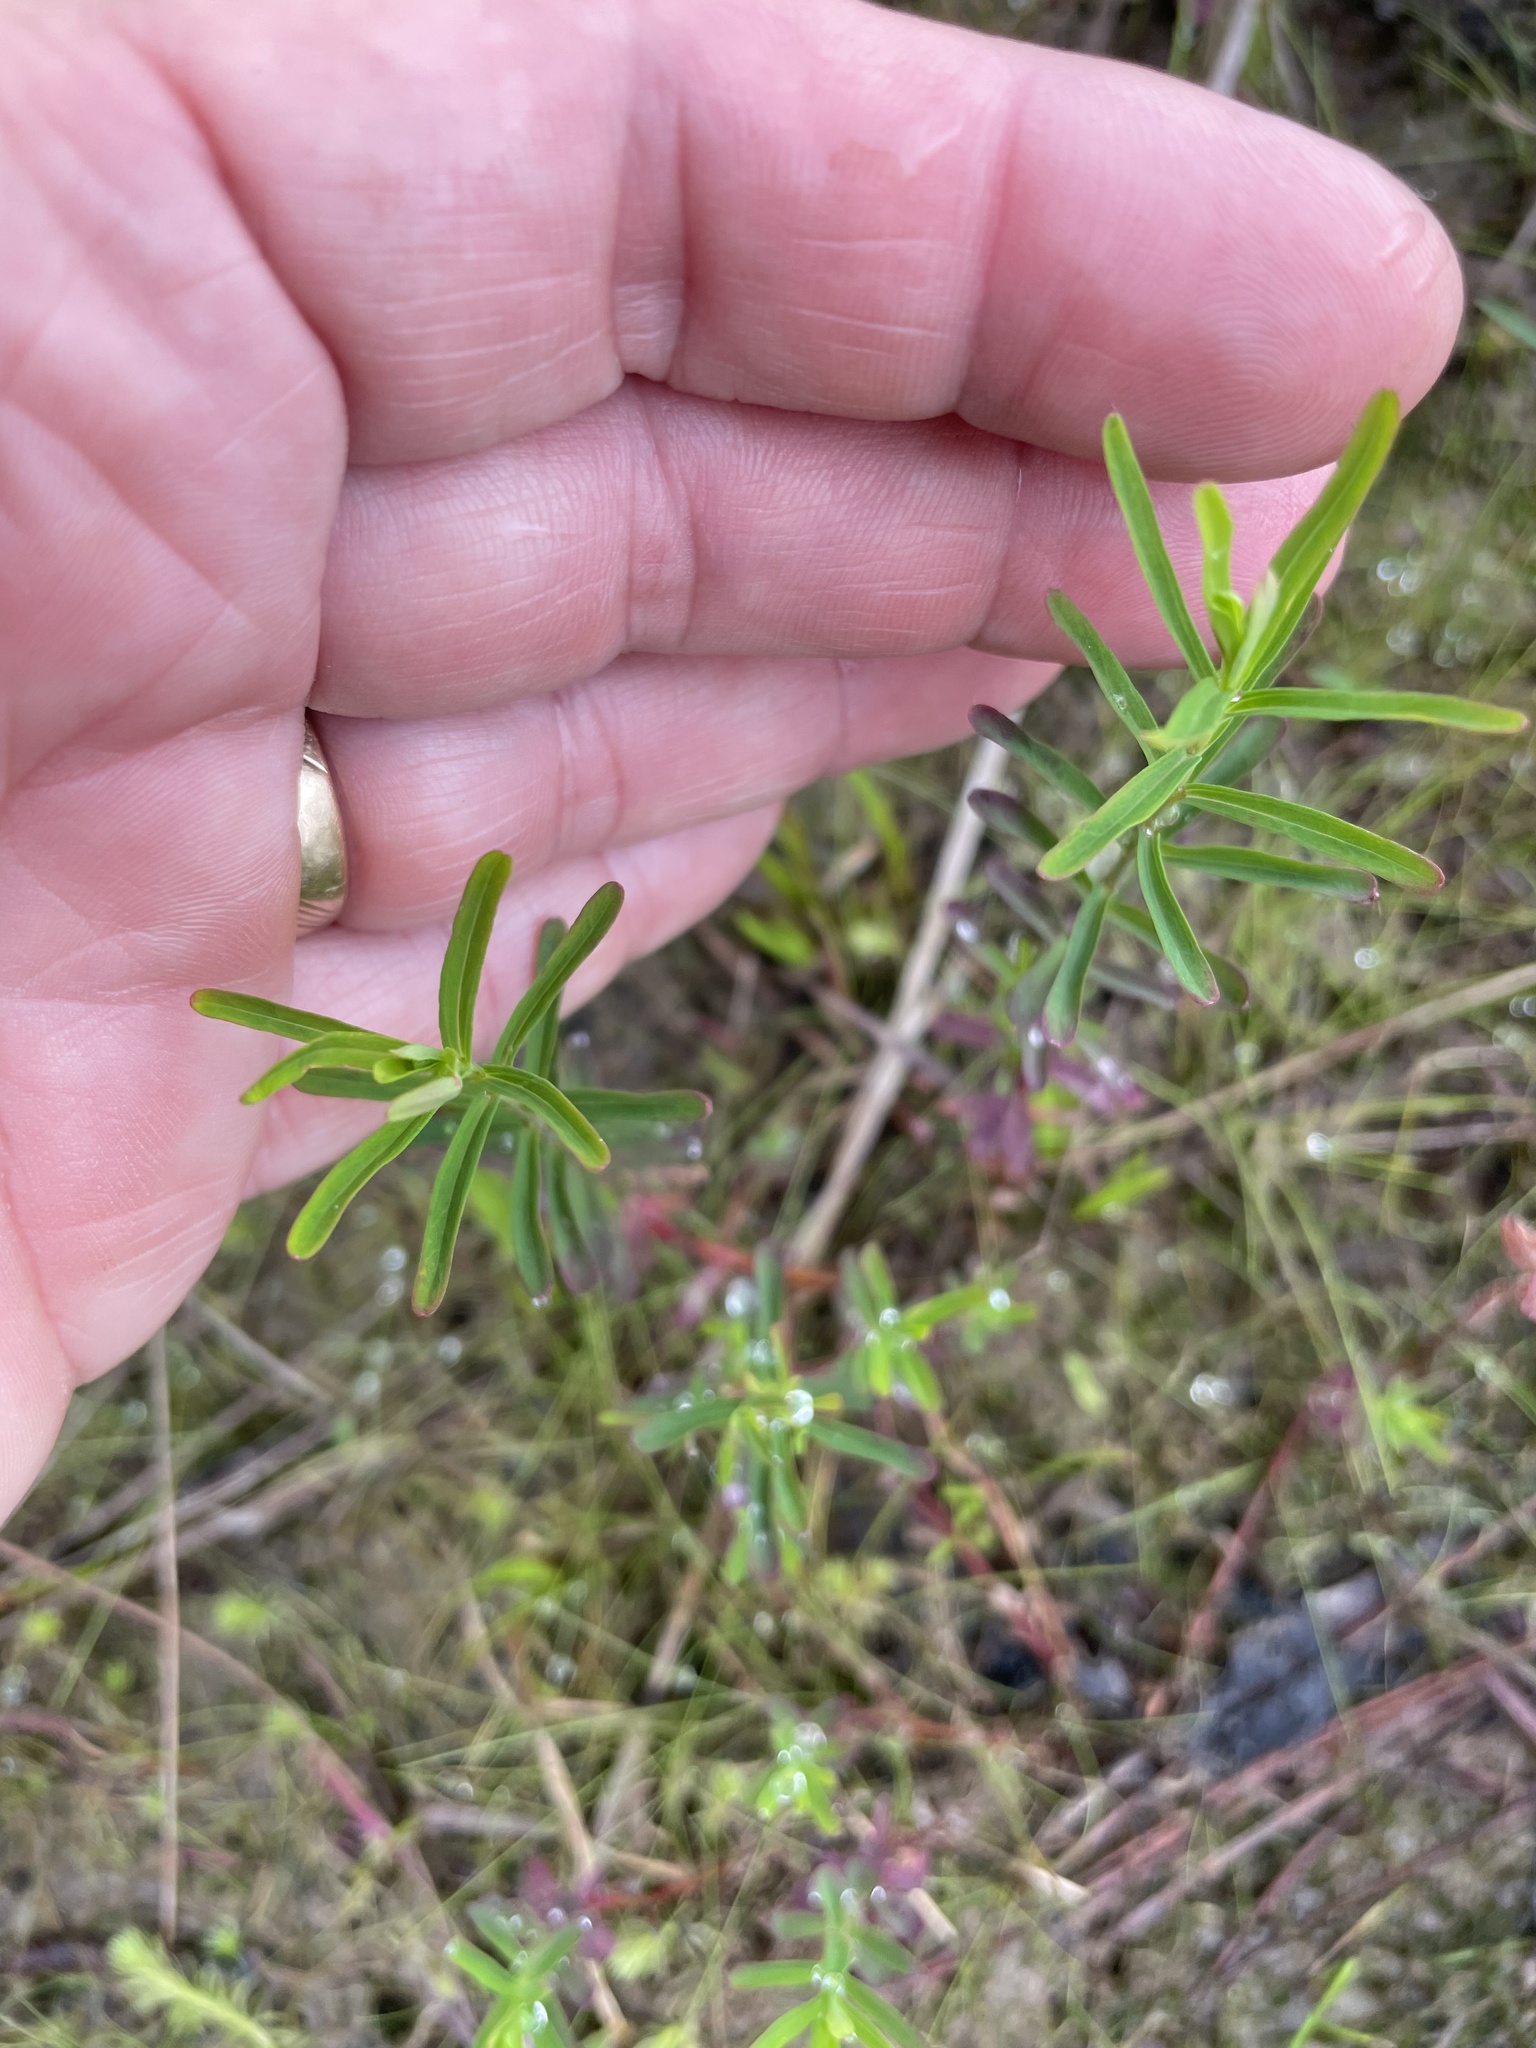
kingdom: Plantae
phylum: Tracheophyta
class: Magnoliopsida
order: Malpighiales
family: Hypericaceae
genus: Hypericum
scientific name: Hypericum canadense
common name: Irish st. john's-wort
